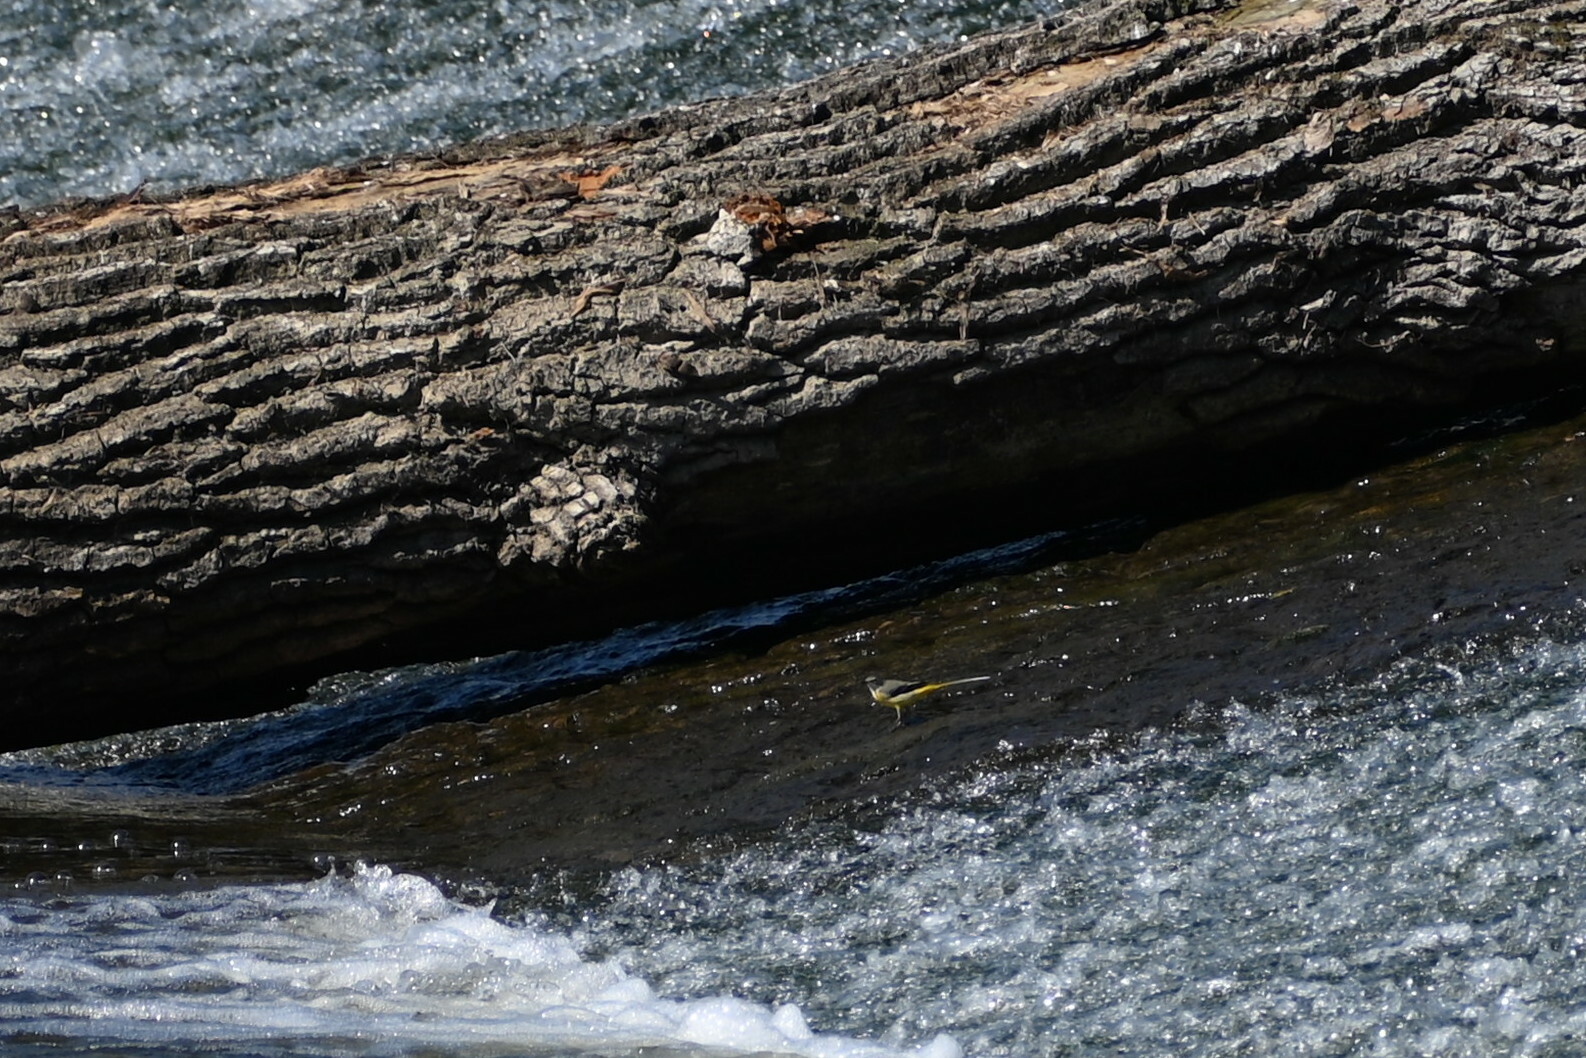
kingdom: Animalia
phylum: Chordata
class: Aves
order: Passeriformes
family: Motacillidae
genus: Motacilla
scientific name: Motacilla cinerea
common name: Grey wagtail
